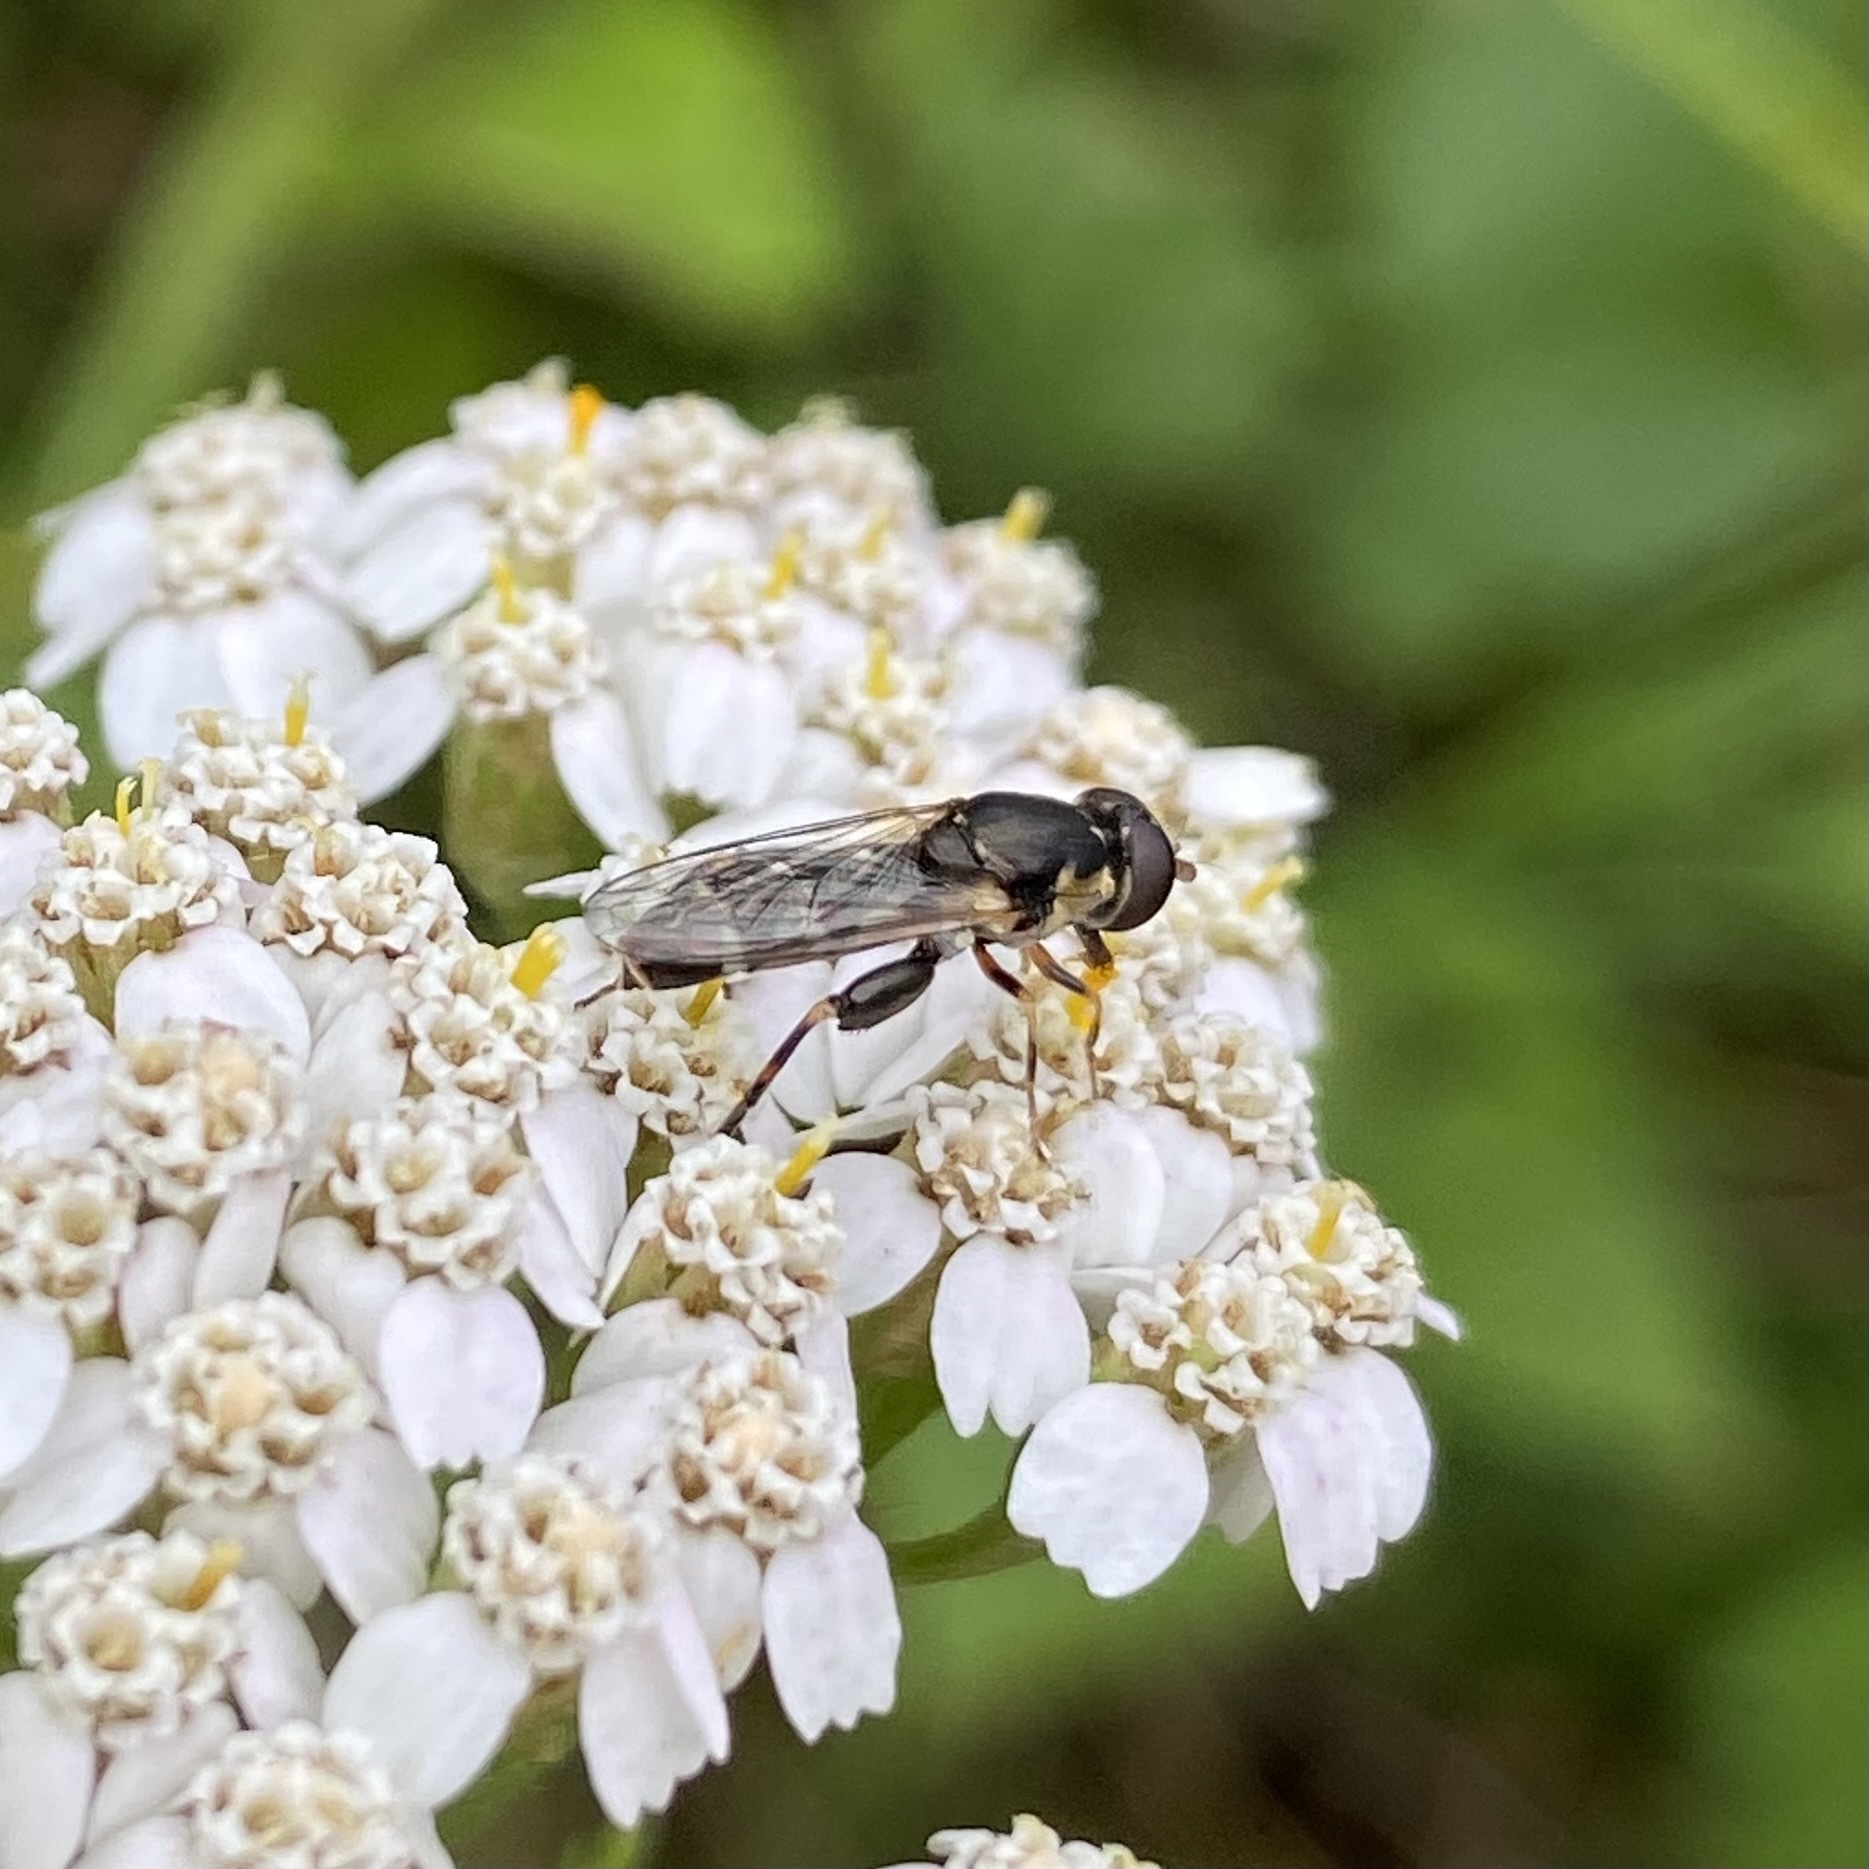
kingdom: Animalia
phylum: Arthropoda
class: Insecta
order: Diptera
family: Syrphidae
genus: Syritta
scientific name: Syritta pipiens
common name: Hover fly
